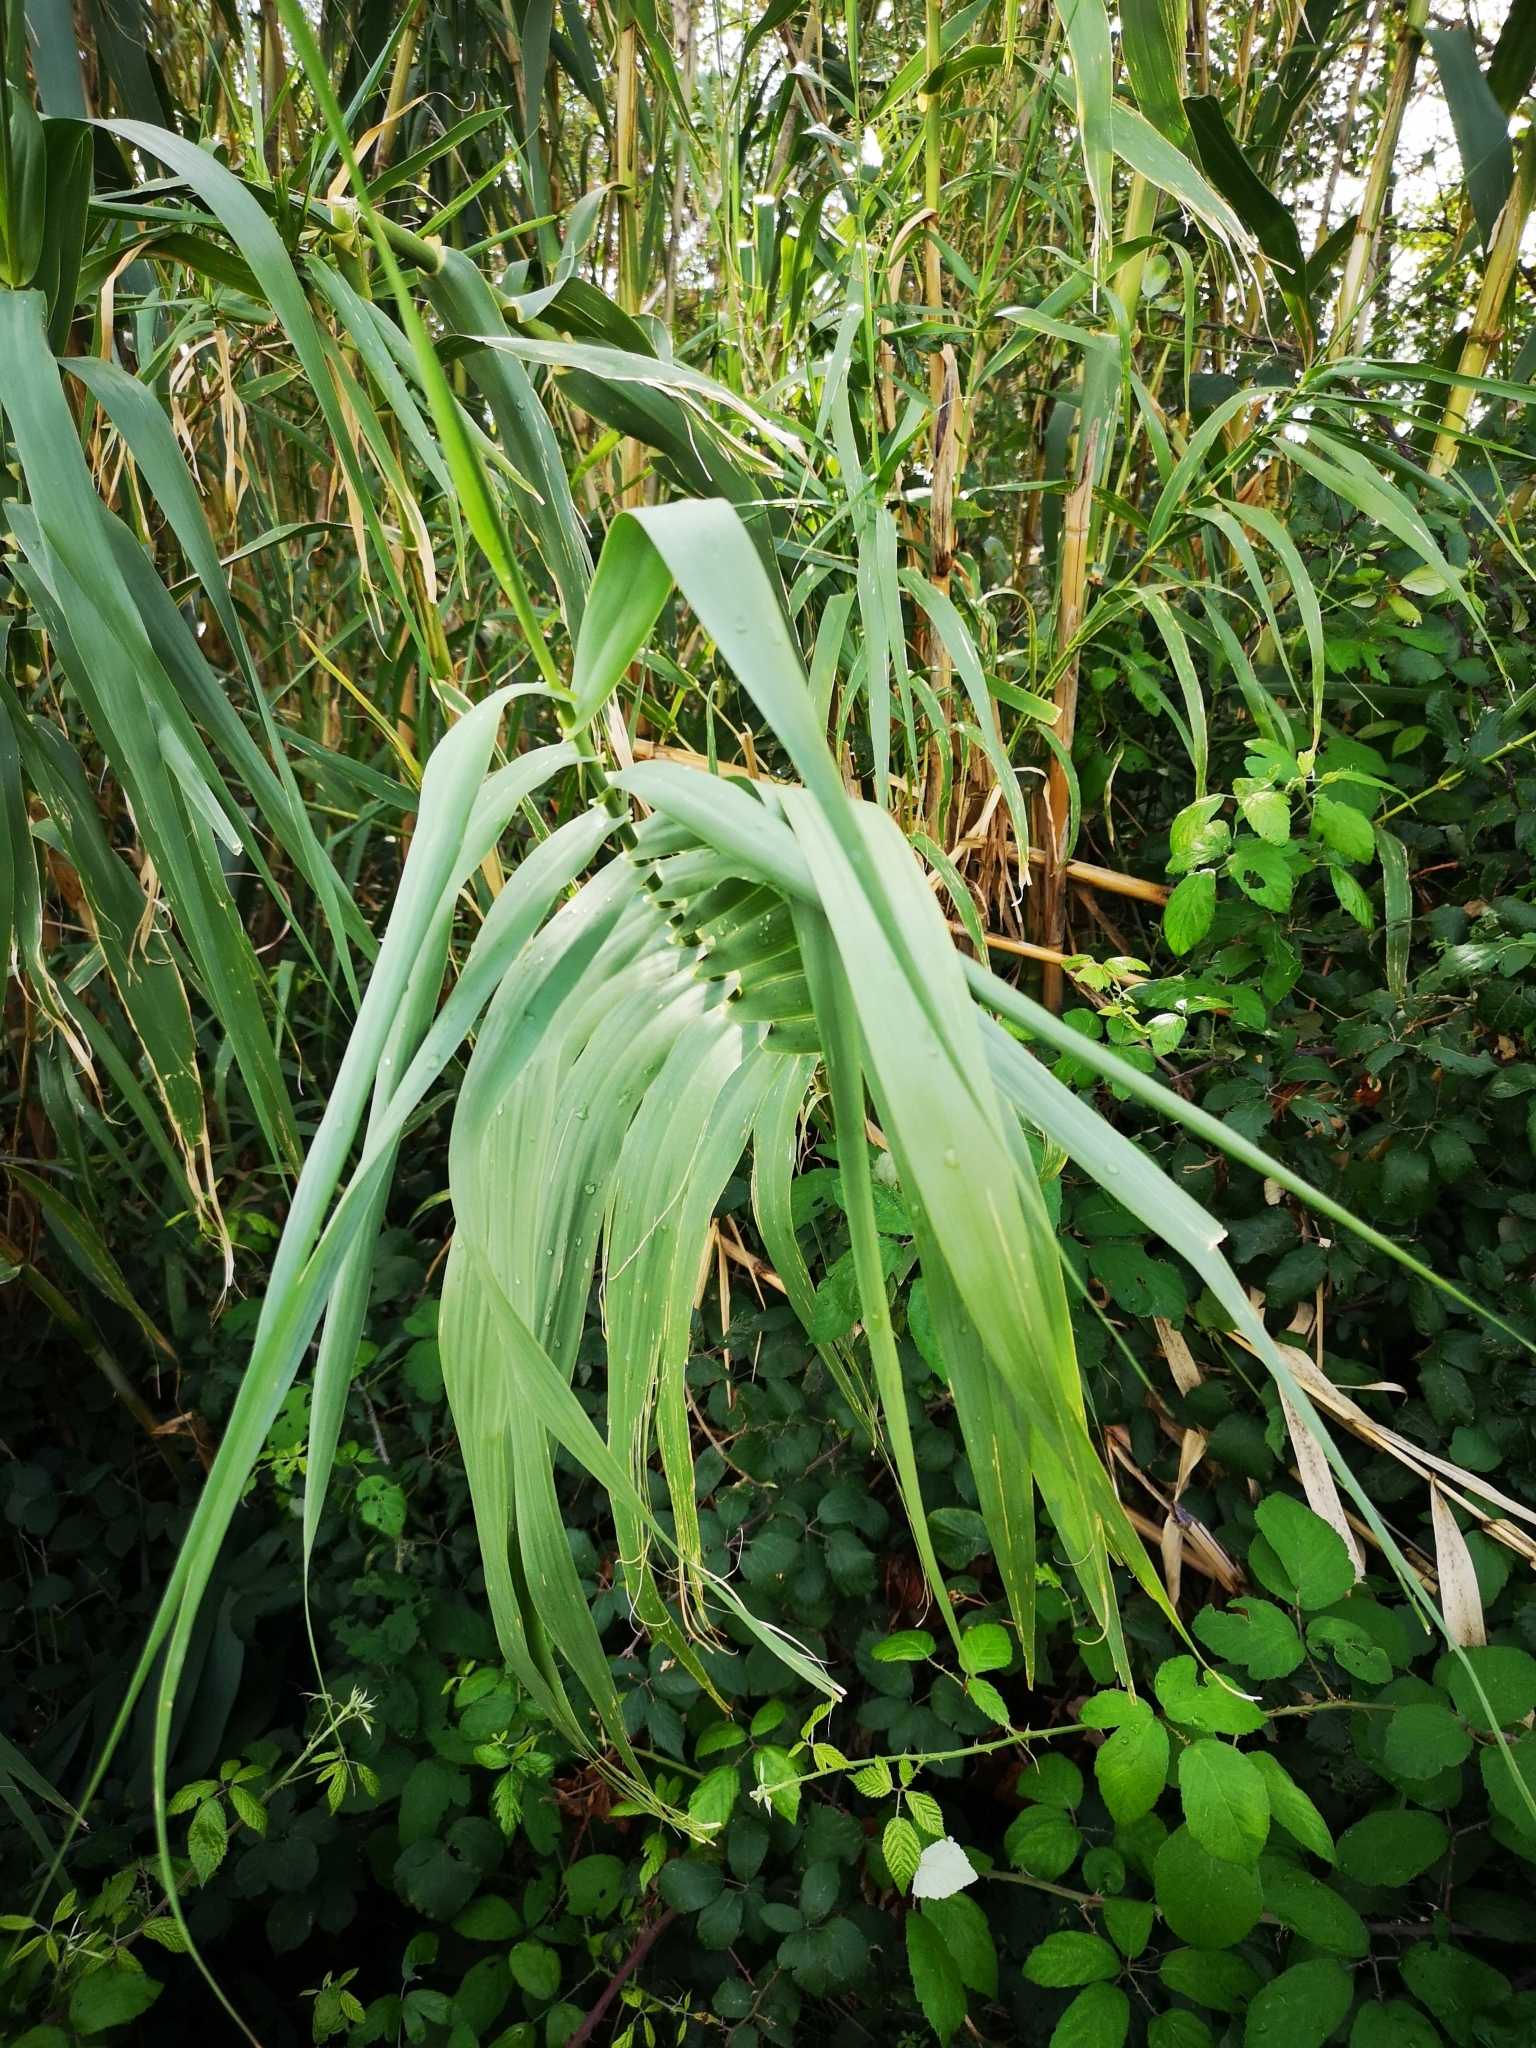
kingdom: Plantae
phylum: Tracheophyta
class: Liliopsida
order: Poales
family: Poaceae
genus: Arundo
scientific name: Arundo donax
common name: Giant reed
